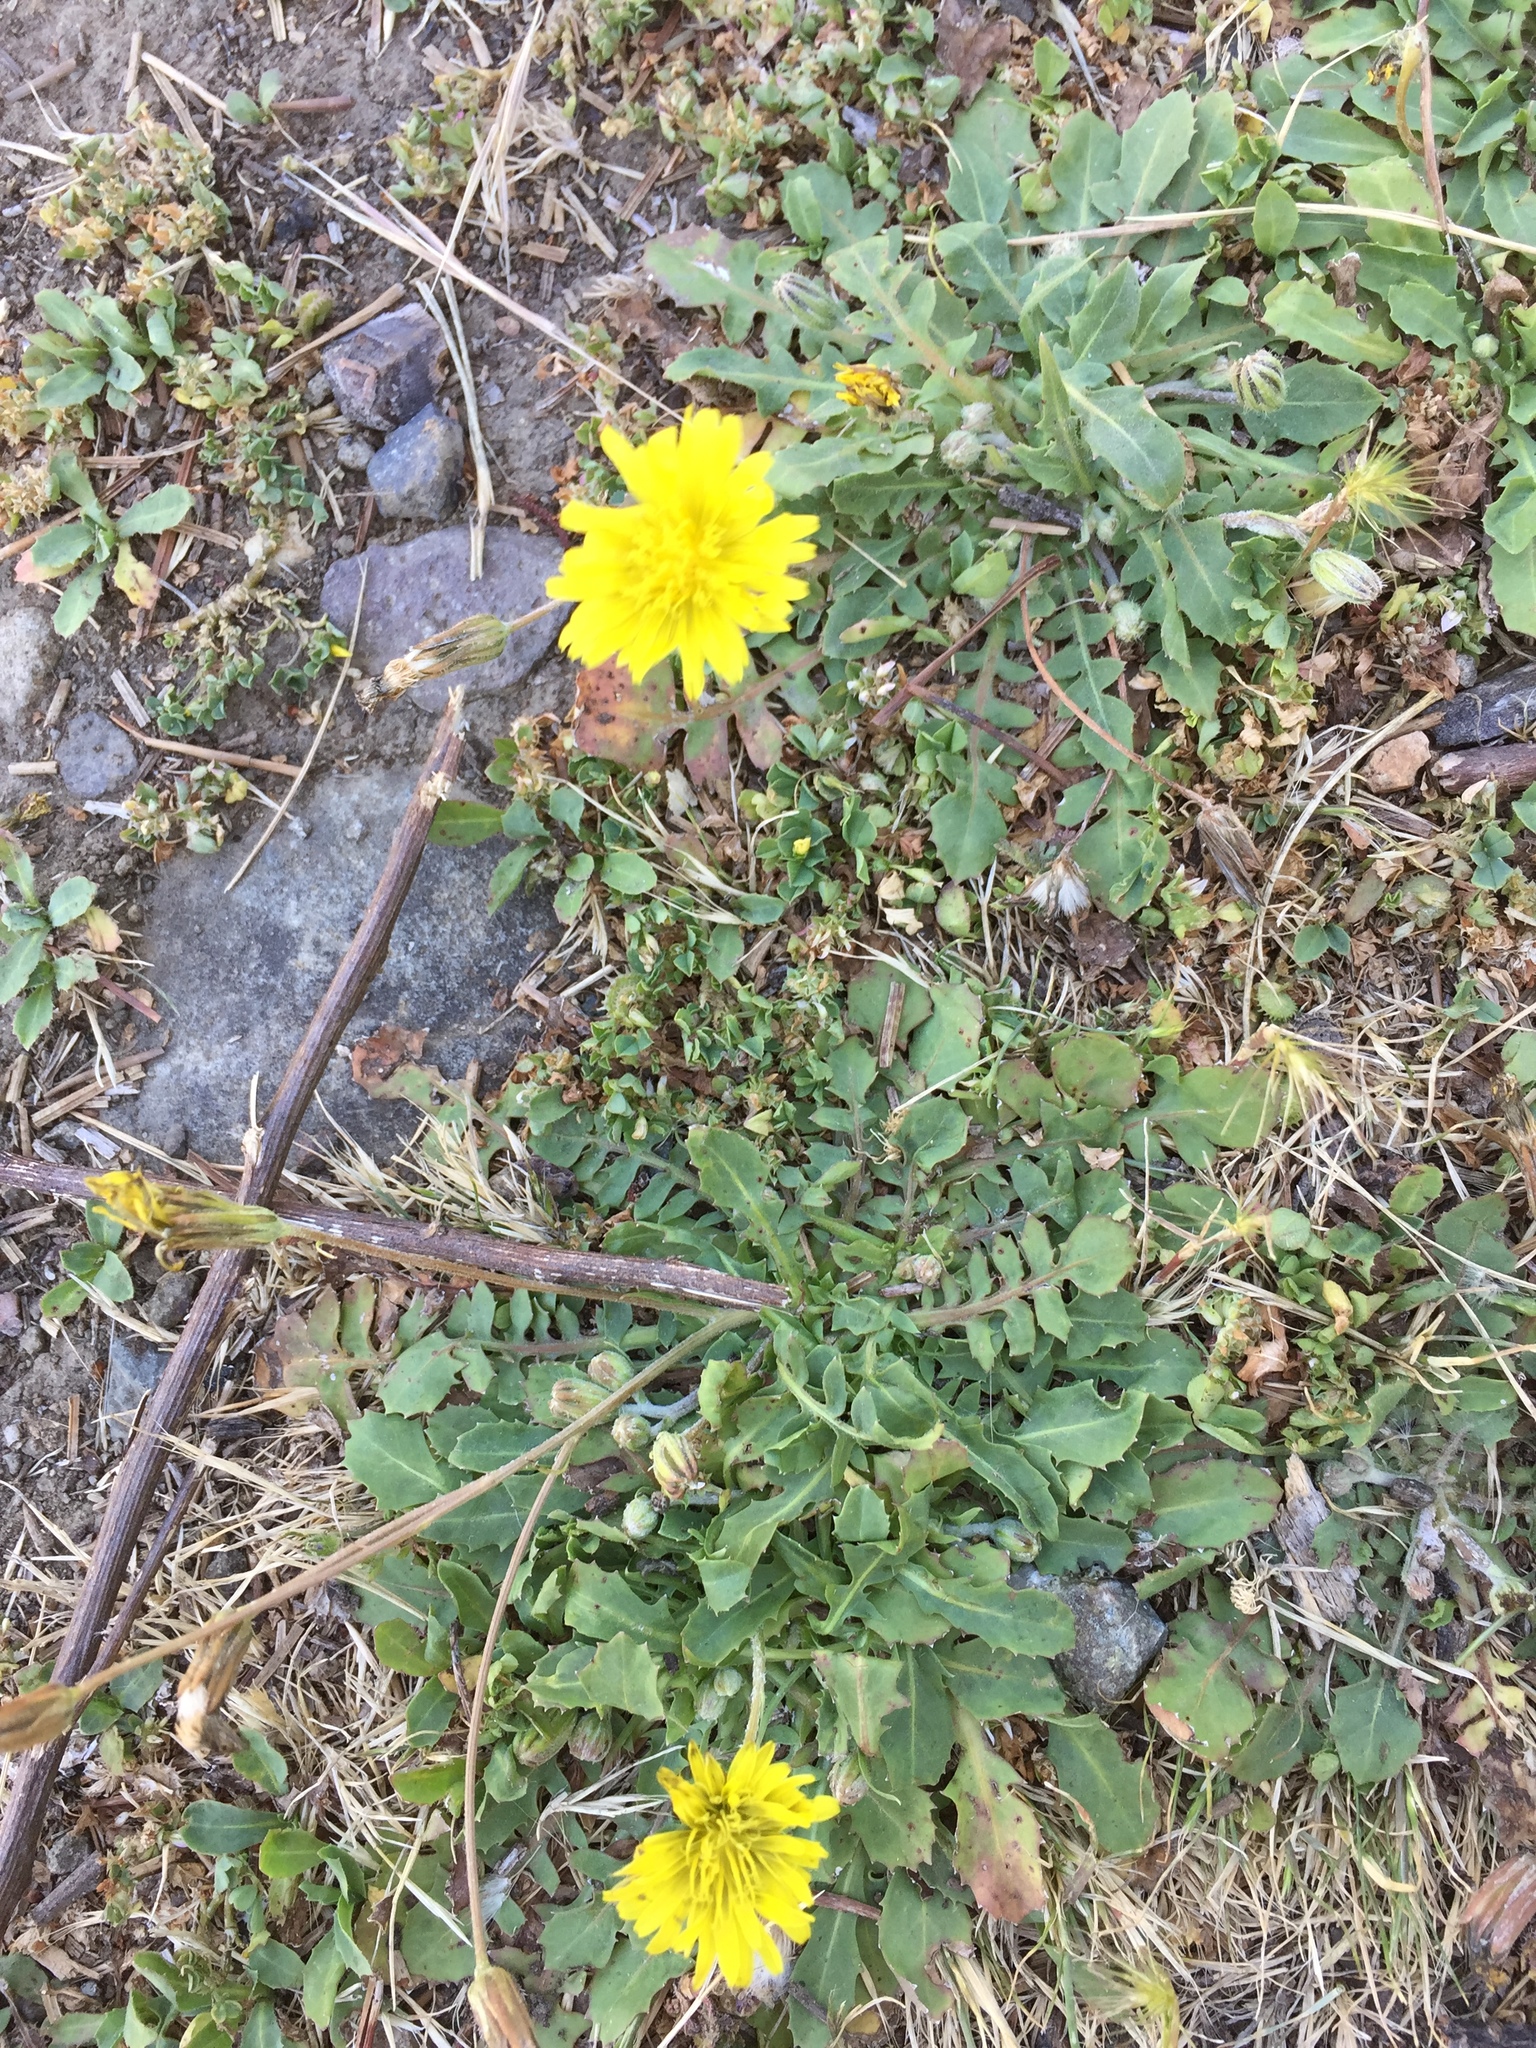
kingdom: Plantae
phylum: Tracheophyta
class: Magnoliopsida
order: Asterales
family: Asteraceae
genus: Crepis
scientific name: Crepis bursifolia
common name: Italian hawksbeard
